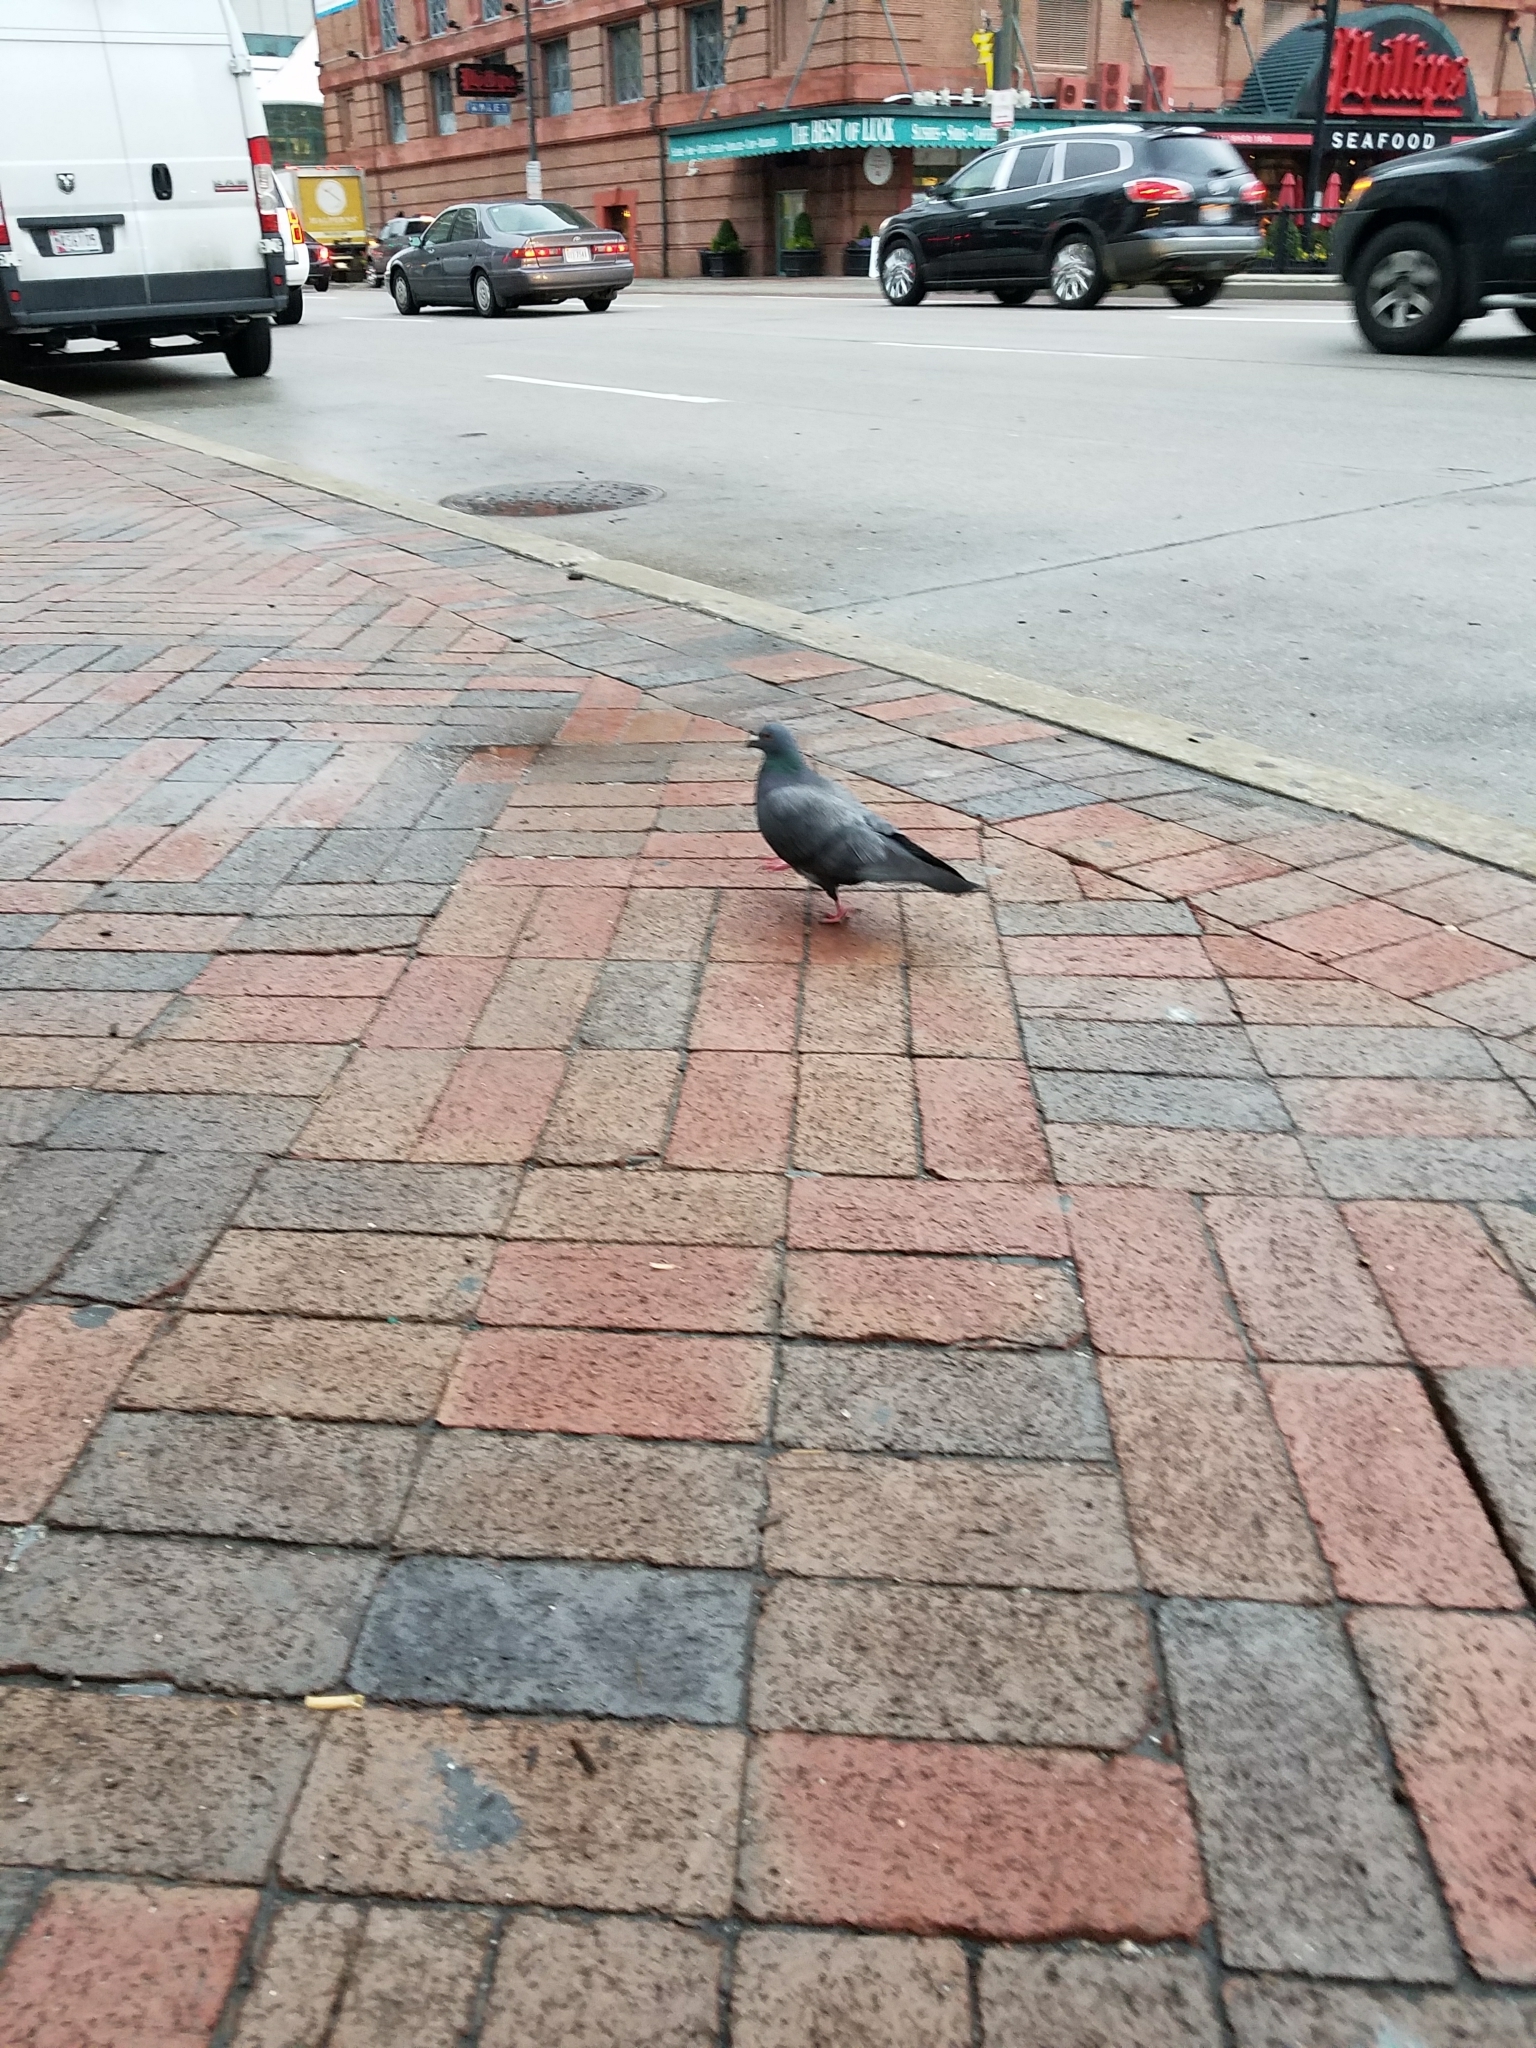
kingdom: Animalia
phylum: Chordata
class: Aves
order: Columbiformes
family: Columbidae
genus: Columba
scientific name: Columba livia
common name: Rock pigeon
